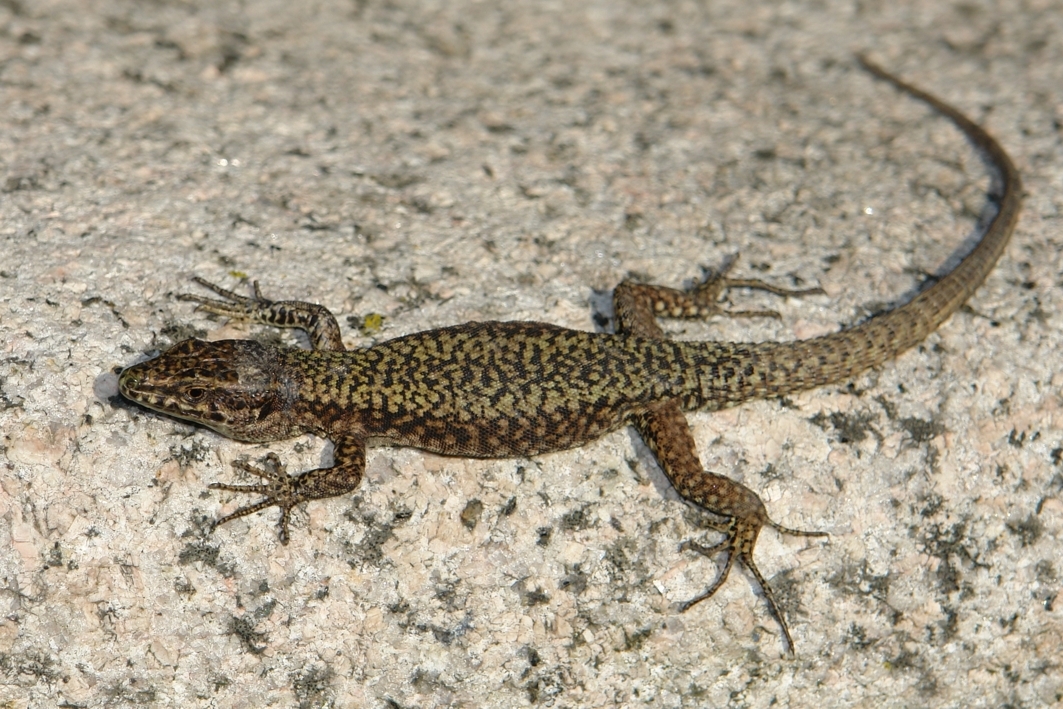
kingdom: Animalia
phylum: Chordata
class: Squamata
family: Lacertidae
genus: Podarcis
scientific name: Podarcis muralis
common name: Common wall lizard
